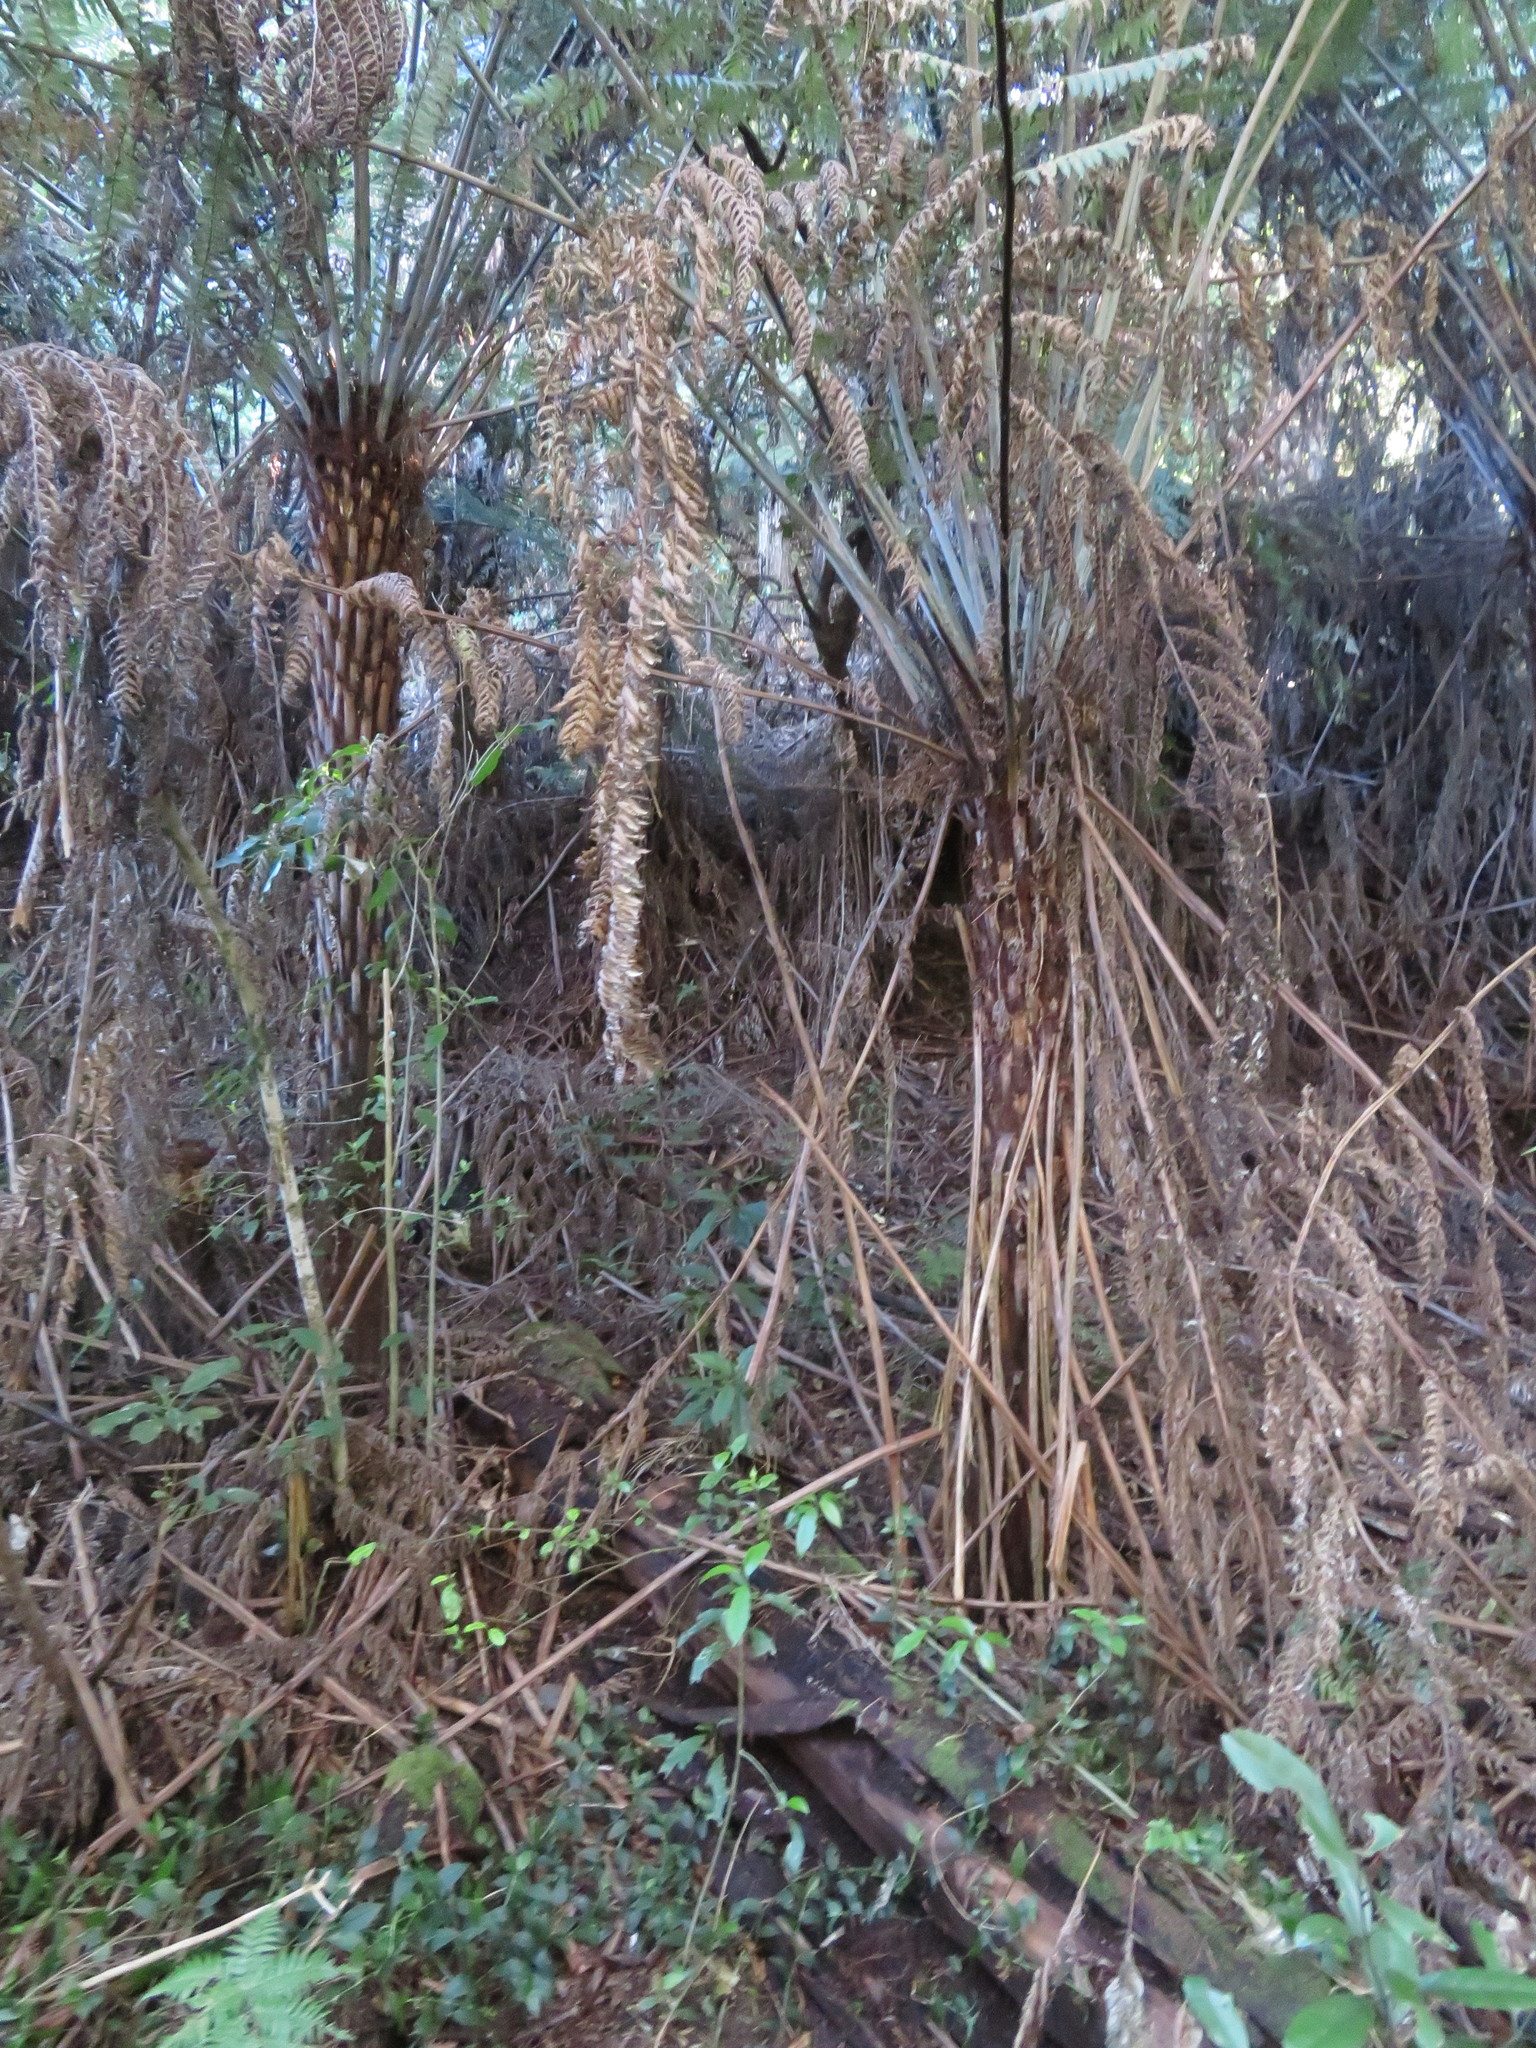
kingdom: Plantae
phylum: Tracheophyta
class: Polypodiopsida
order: Cyatheales
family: Cyatheaceae
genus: Alsophila
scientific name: Alsophila dealbata
